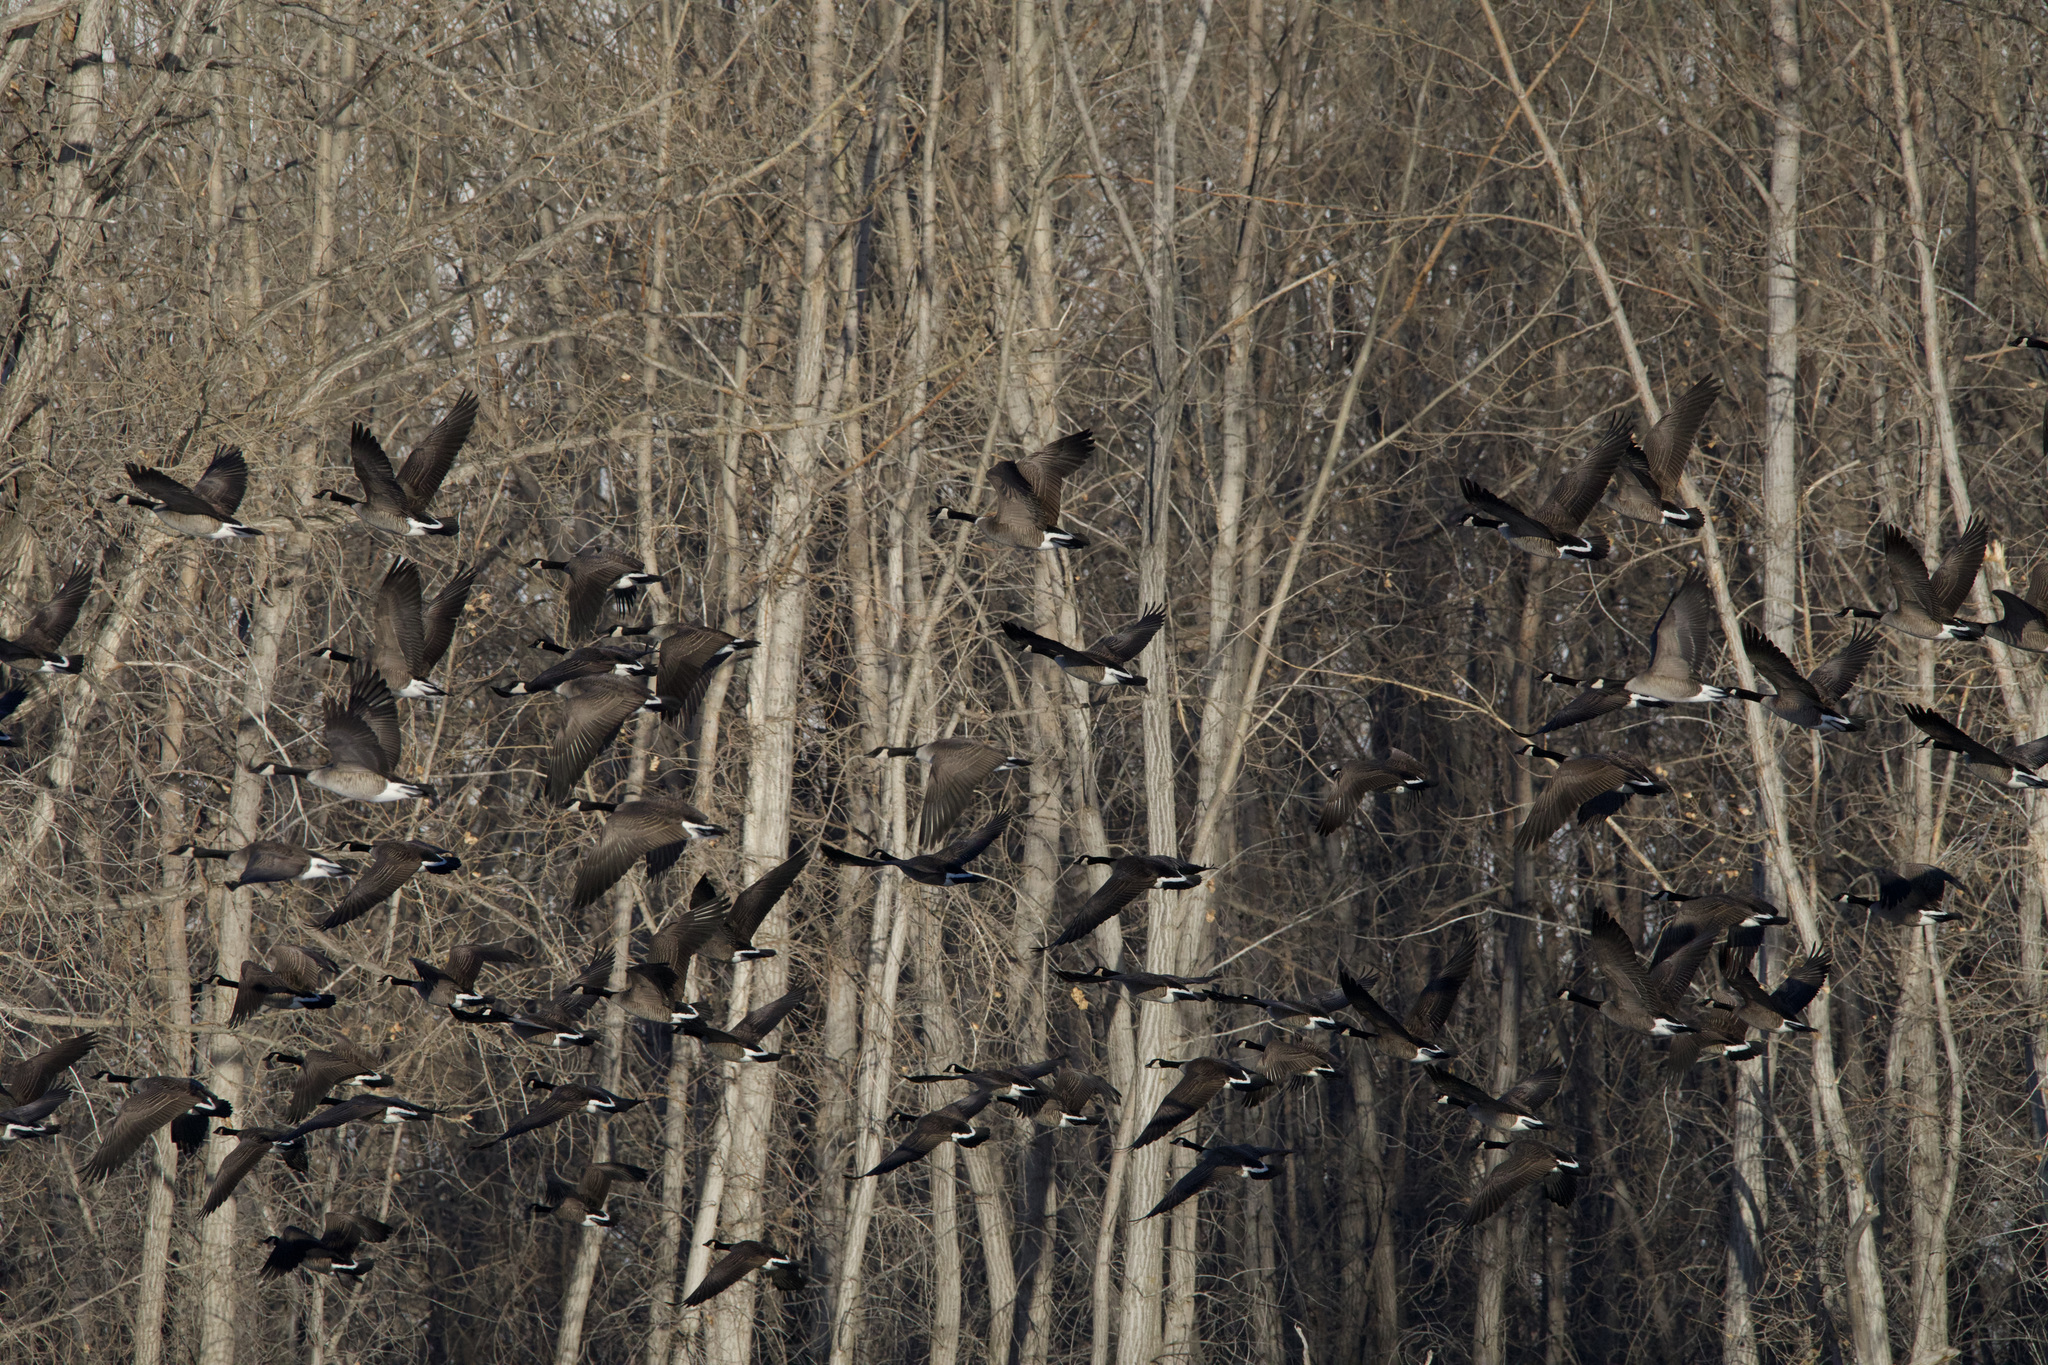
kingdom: Animalia
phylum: Chordata
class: Aves
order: Anseriformes
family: Anatidae
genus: Branta
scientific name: Branta canadensis
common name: Canada goose
